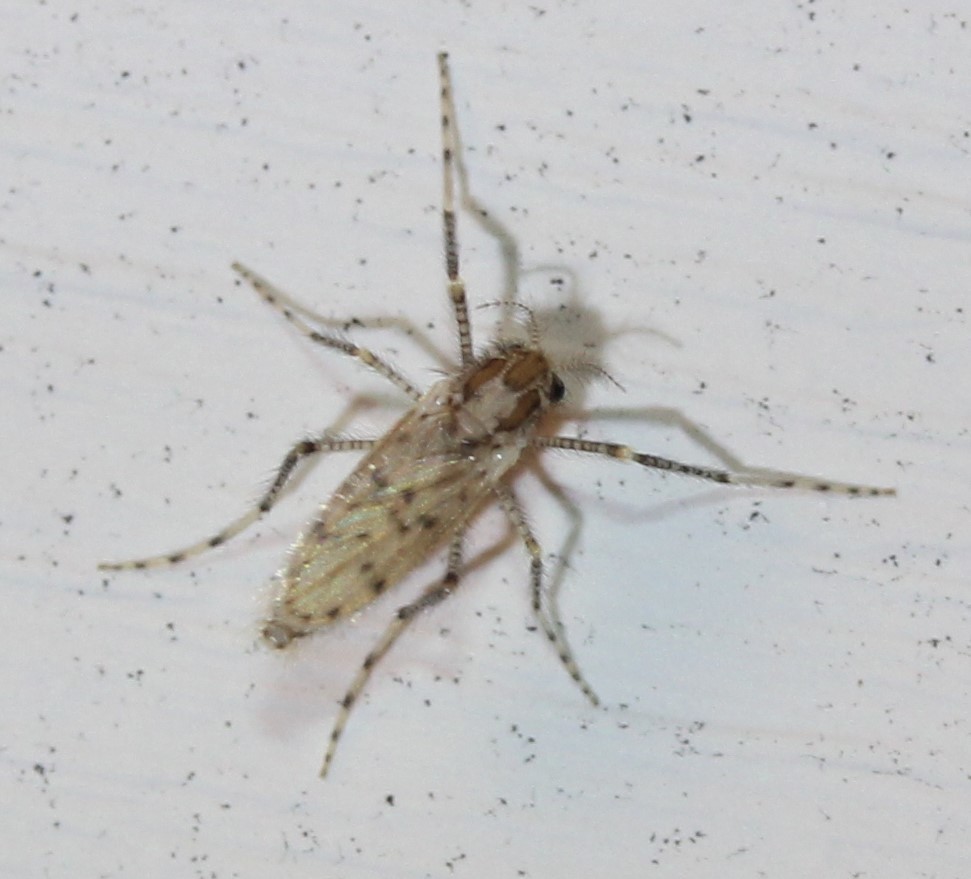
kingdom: Animalia
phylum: Arthropoda
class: Insecta
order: Diptera
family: Chaoboridae
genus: Chaoborus
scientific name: Chaoborus punctipennis
